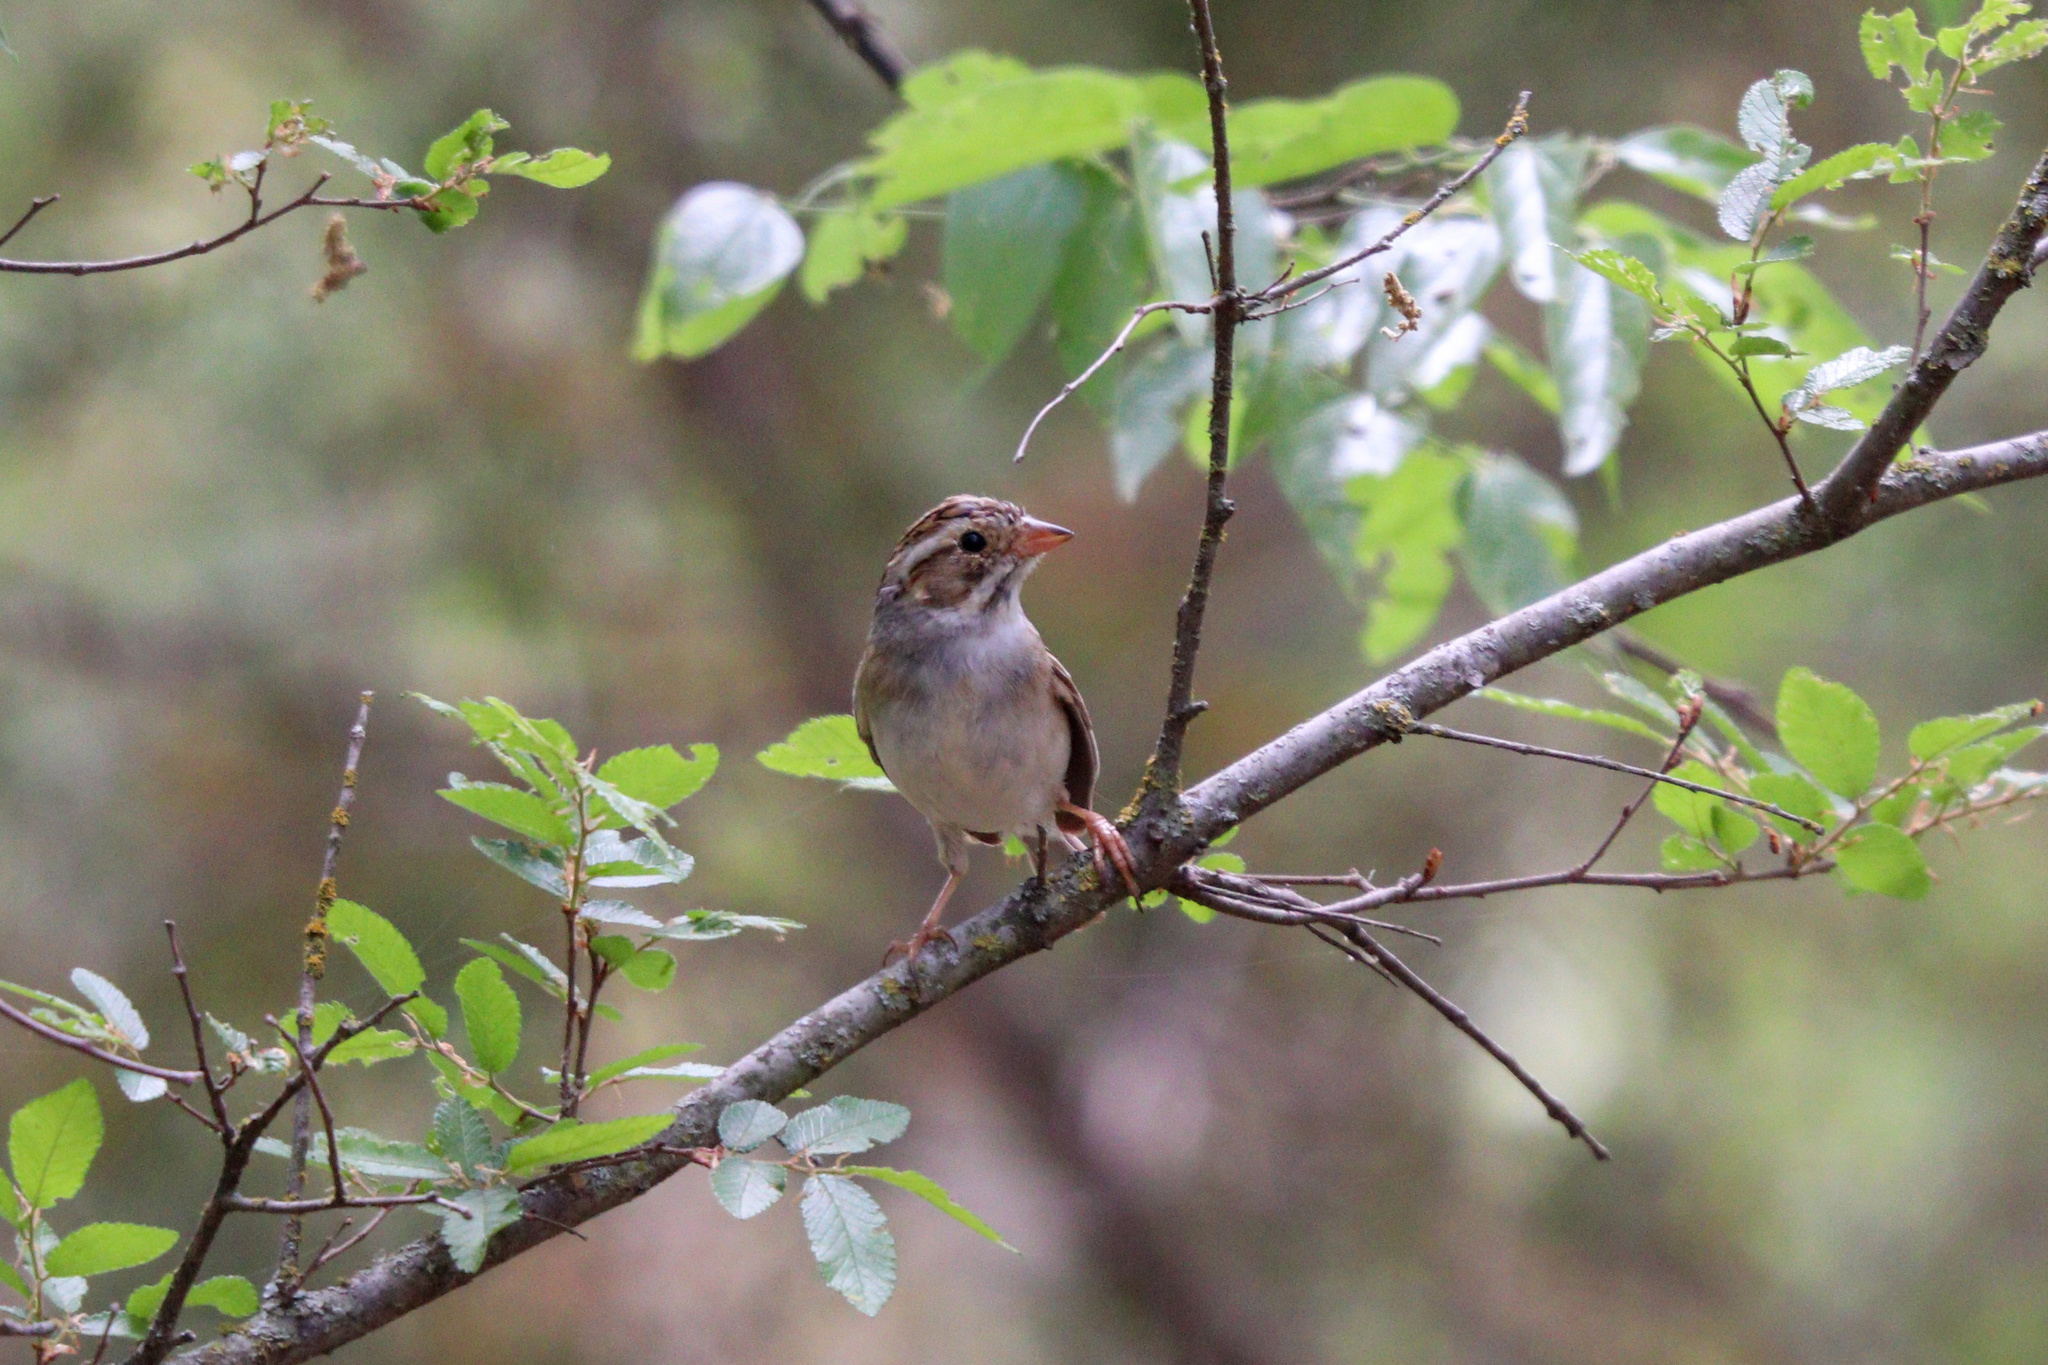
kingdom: Animalia
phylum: Chordata
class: Aves
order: Passeriformes
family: Passerellidae
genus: Spizella
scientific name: Spizella pallida
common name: Clay-colored sparrow
